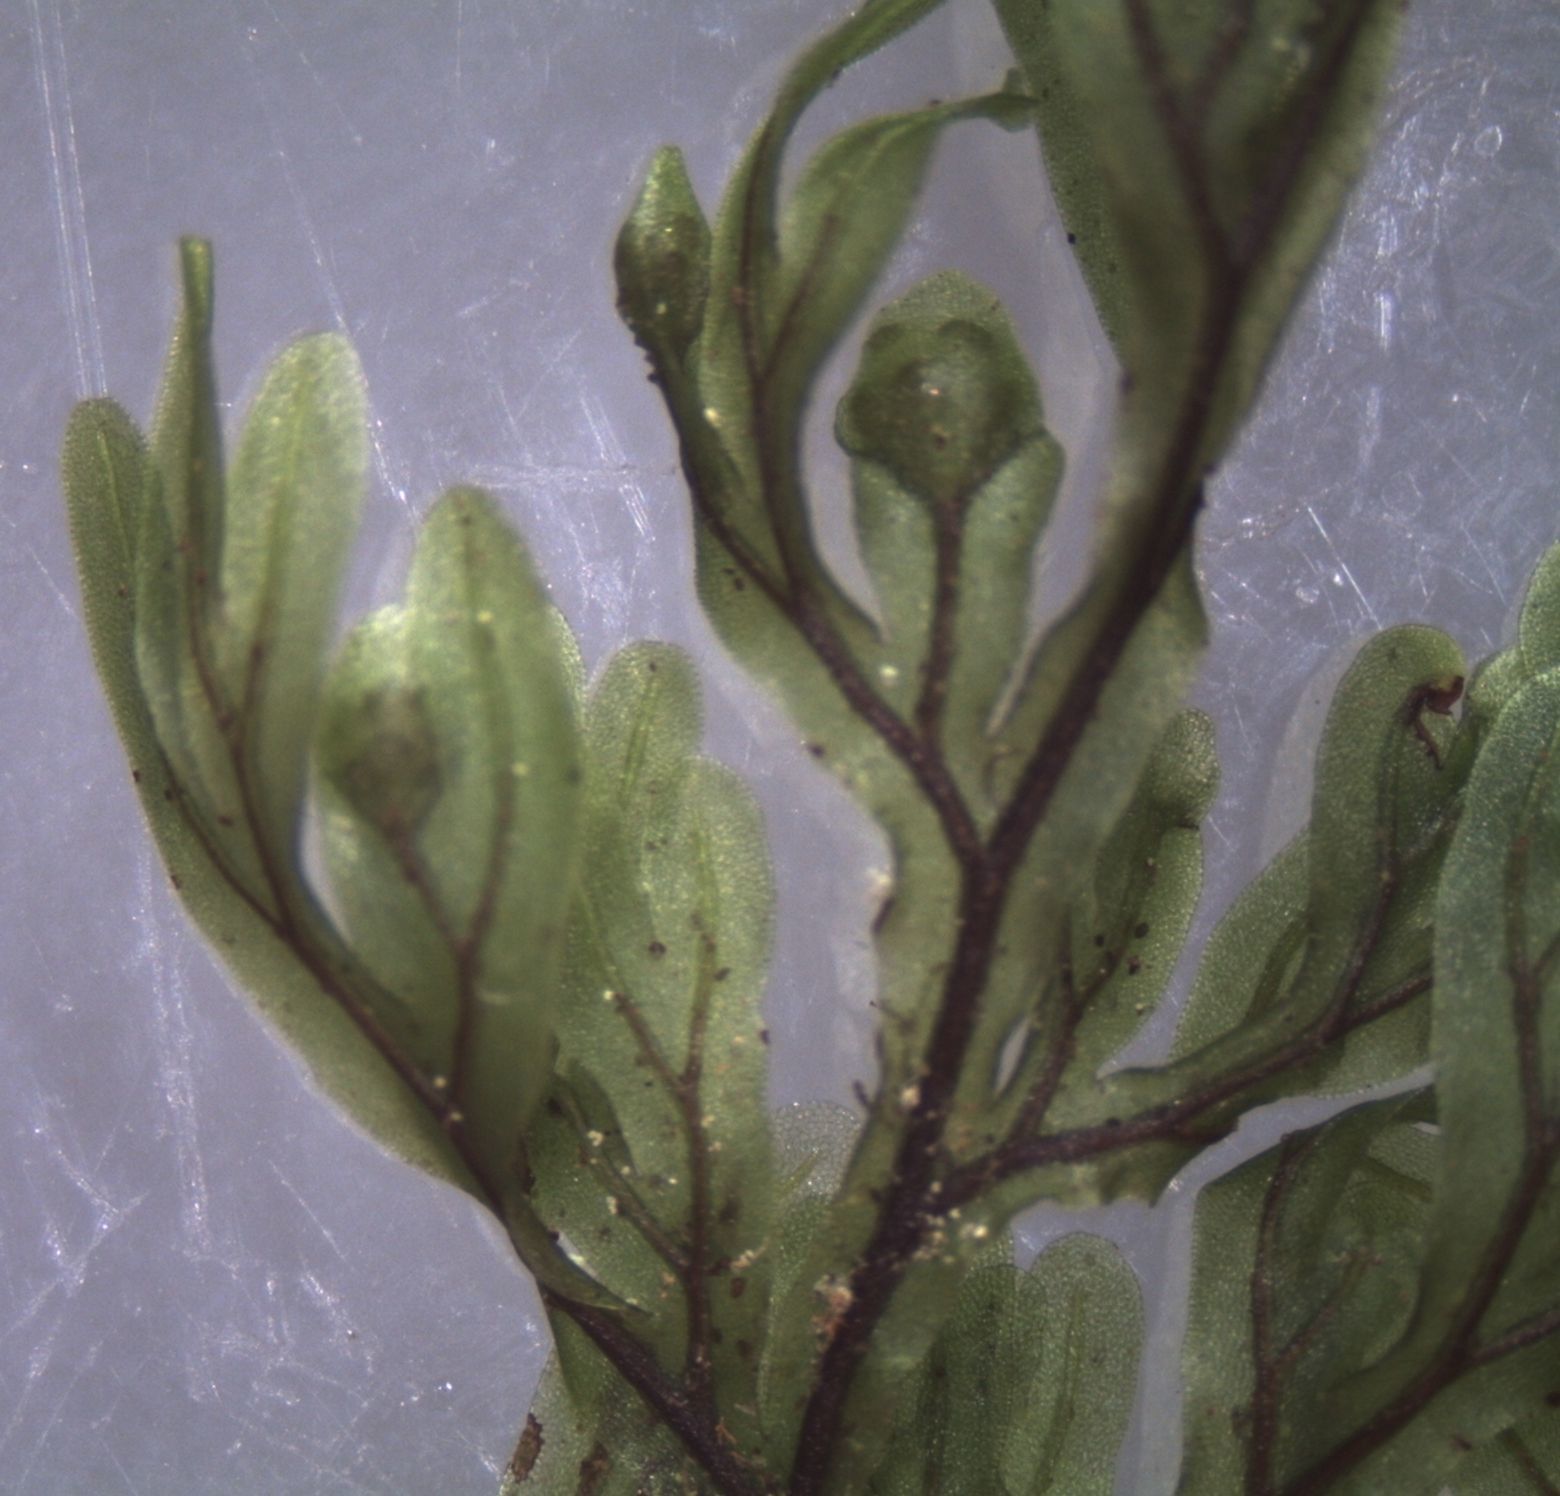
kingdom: Plantae
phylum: Tracheophyta
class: Polypodiopsida
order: Hymenophyllales
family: Hymenophyllaceae
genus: Hymenophyllum
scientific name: Hymenophyllum australe
